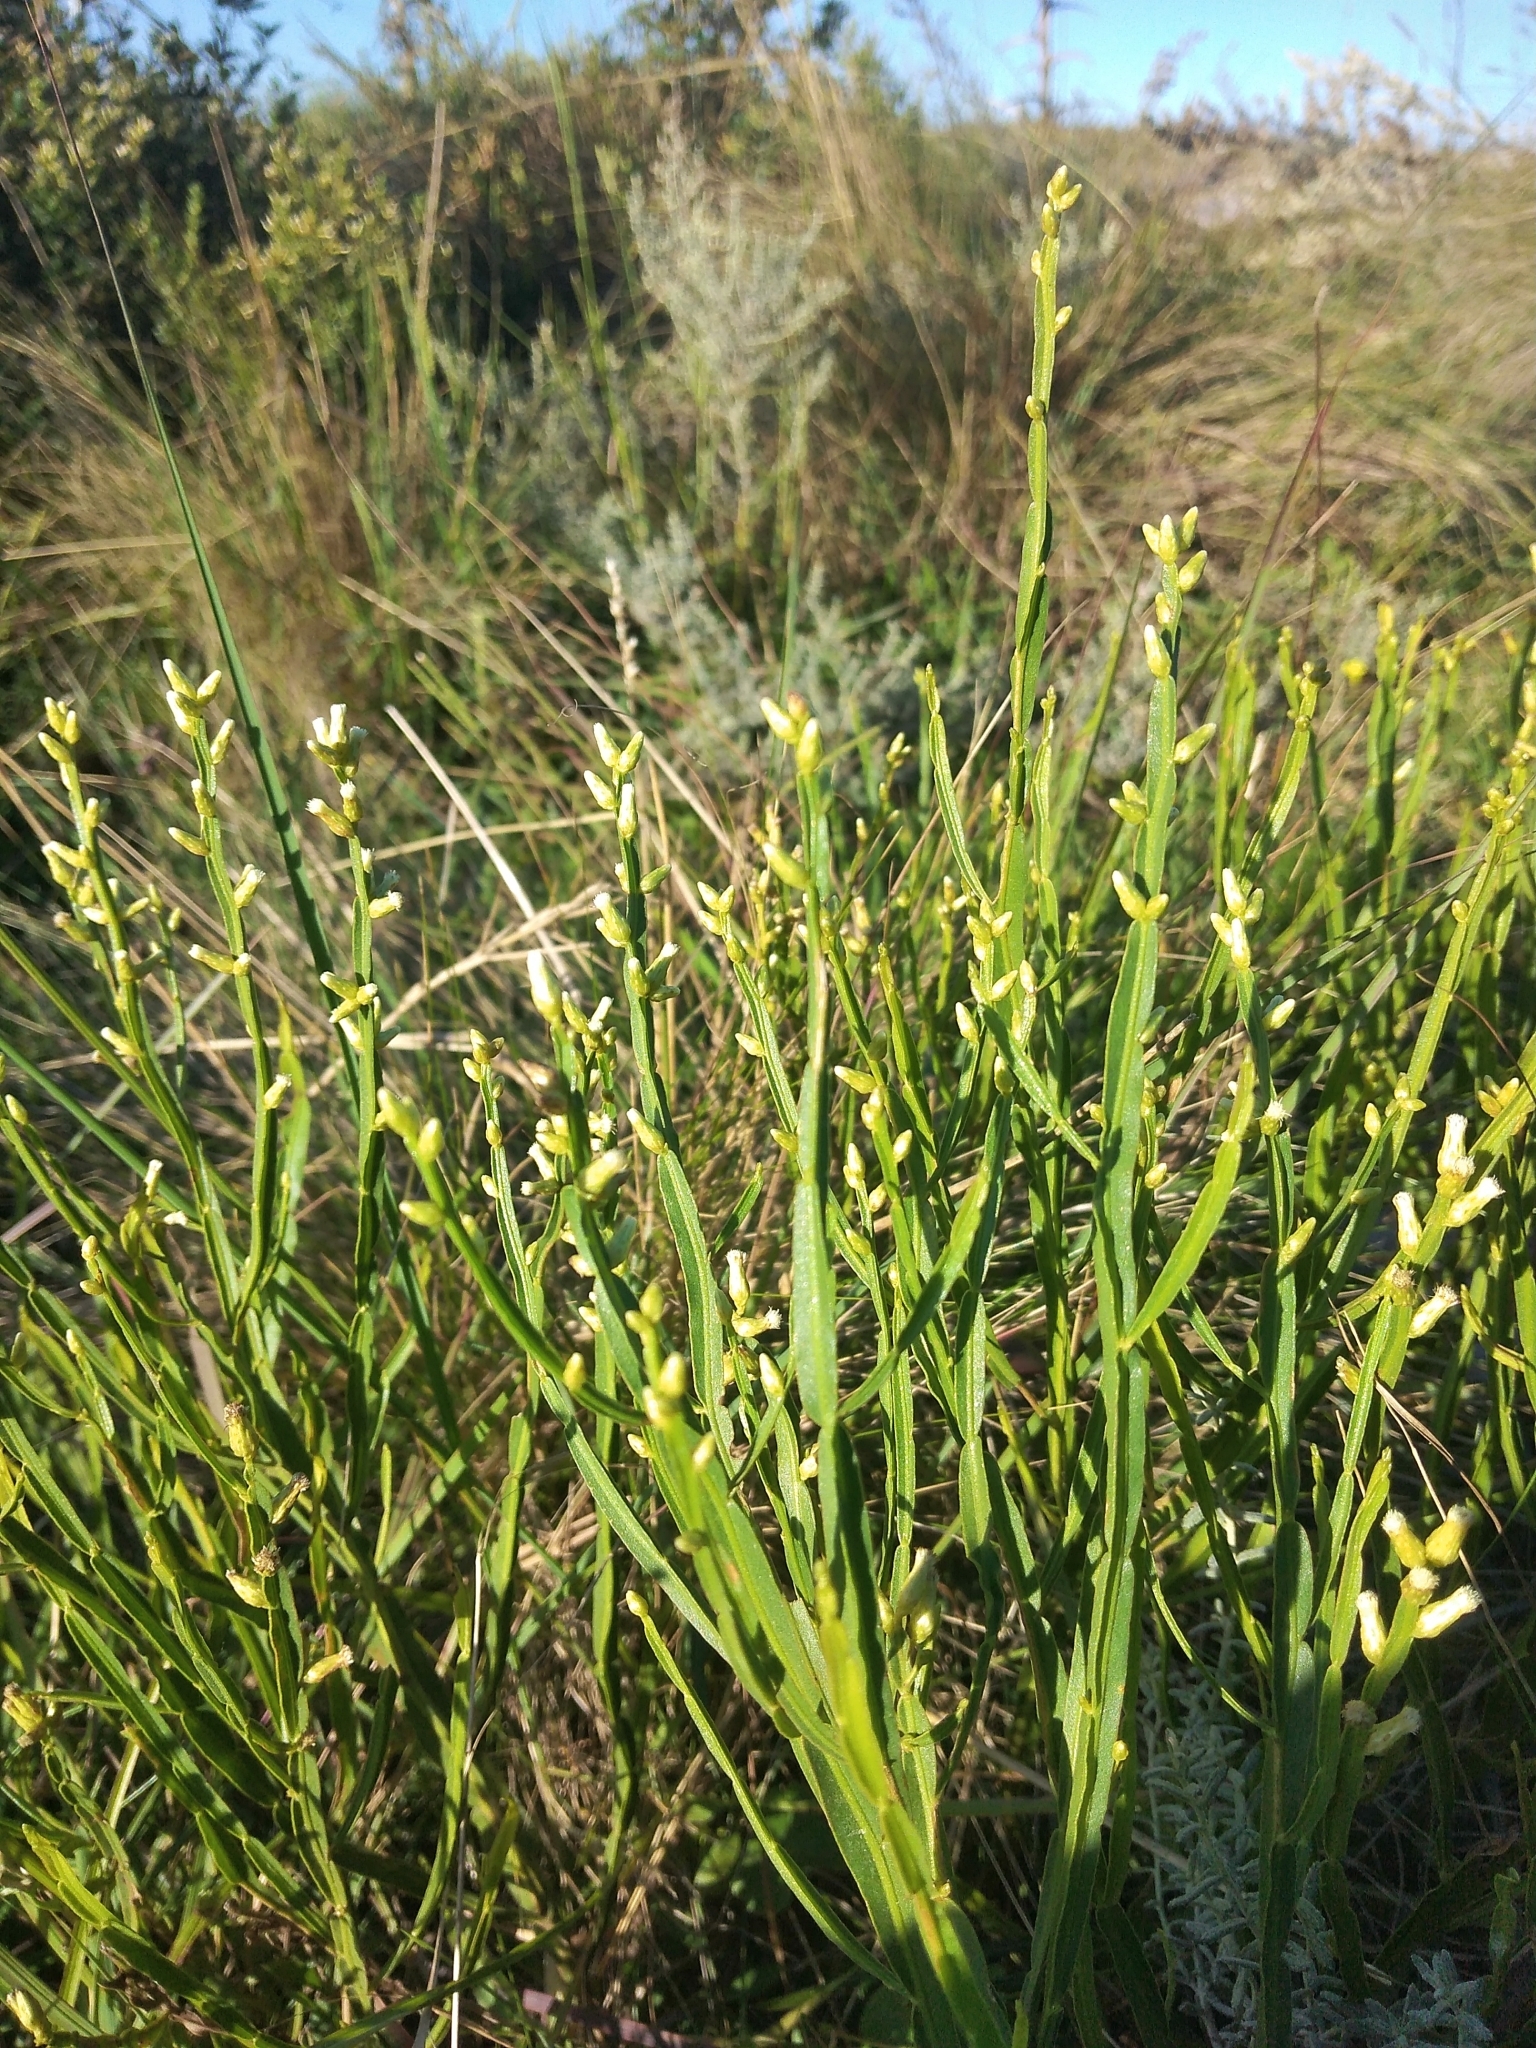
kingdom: Plantae
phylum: Tracheophyta
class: Magnoliopsida
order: Asterales
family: Asteraceae
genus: Baccharis
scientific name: Baccharis trimera
